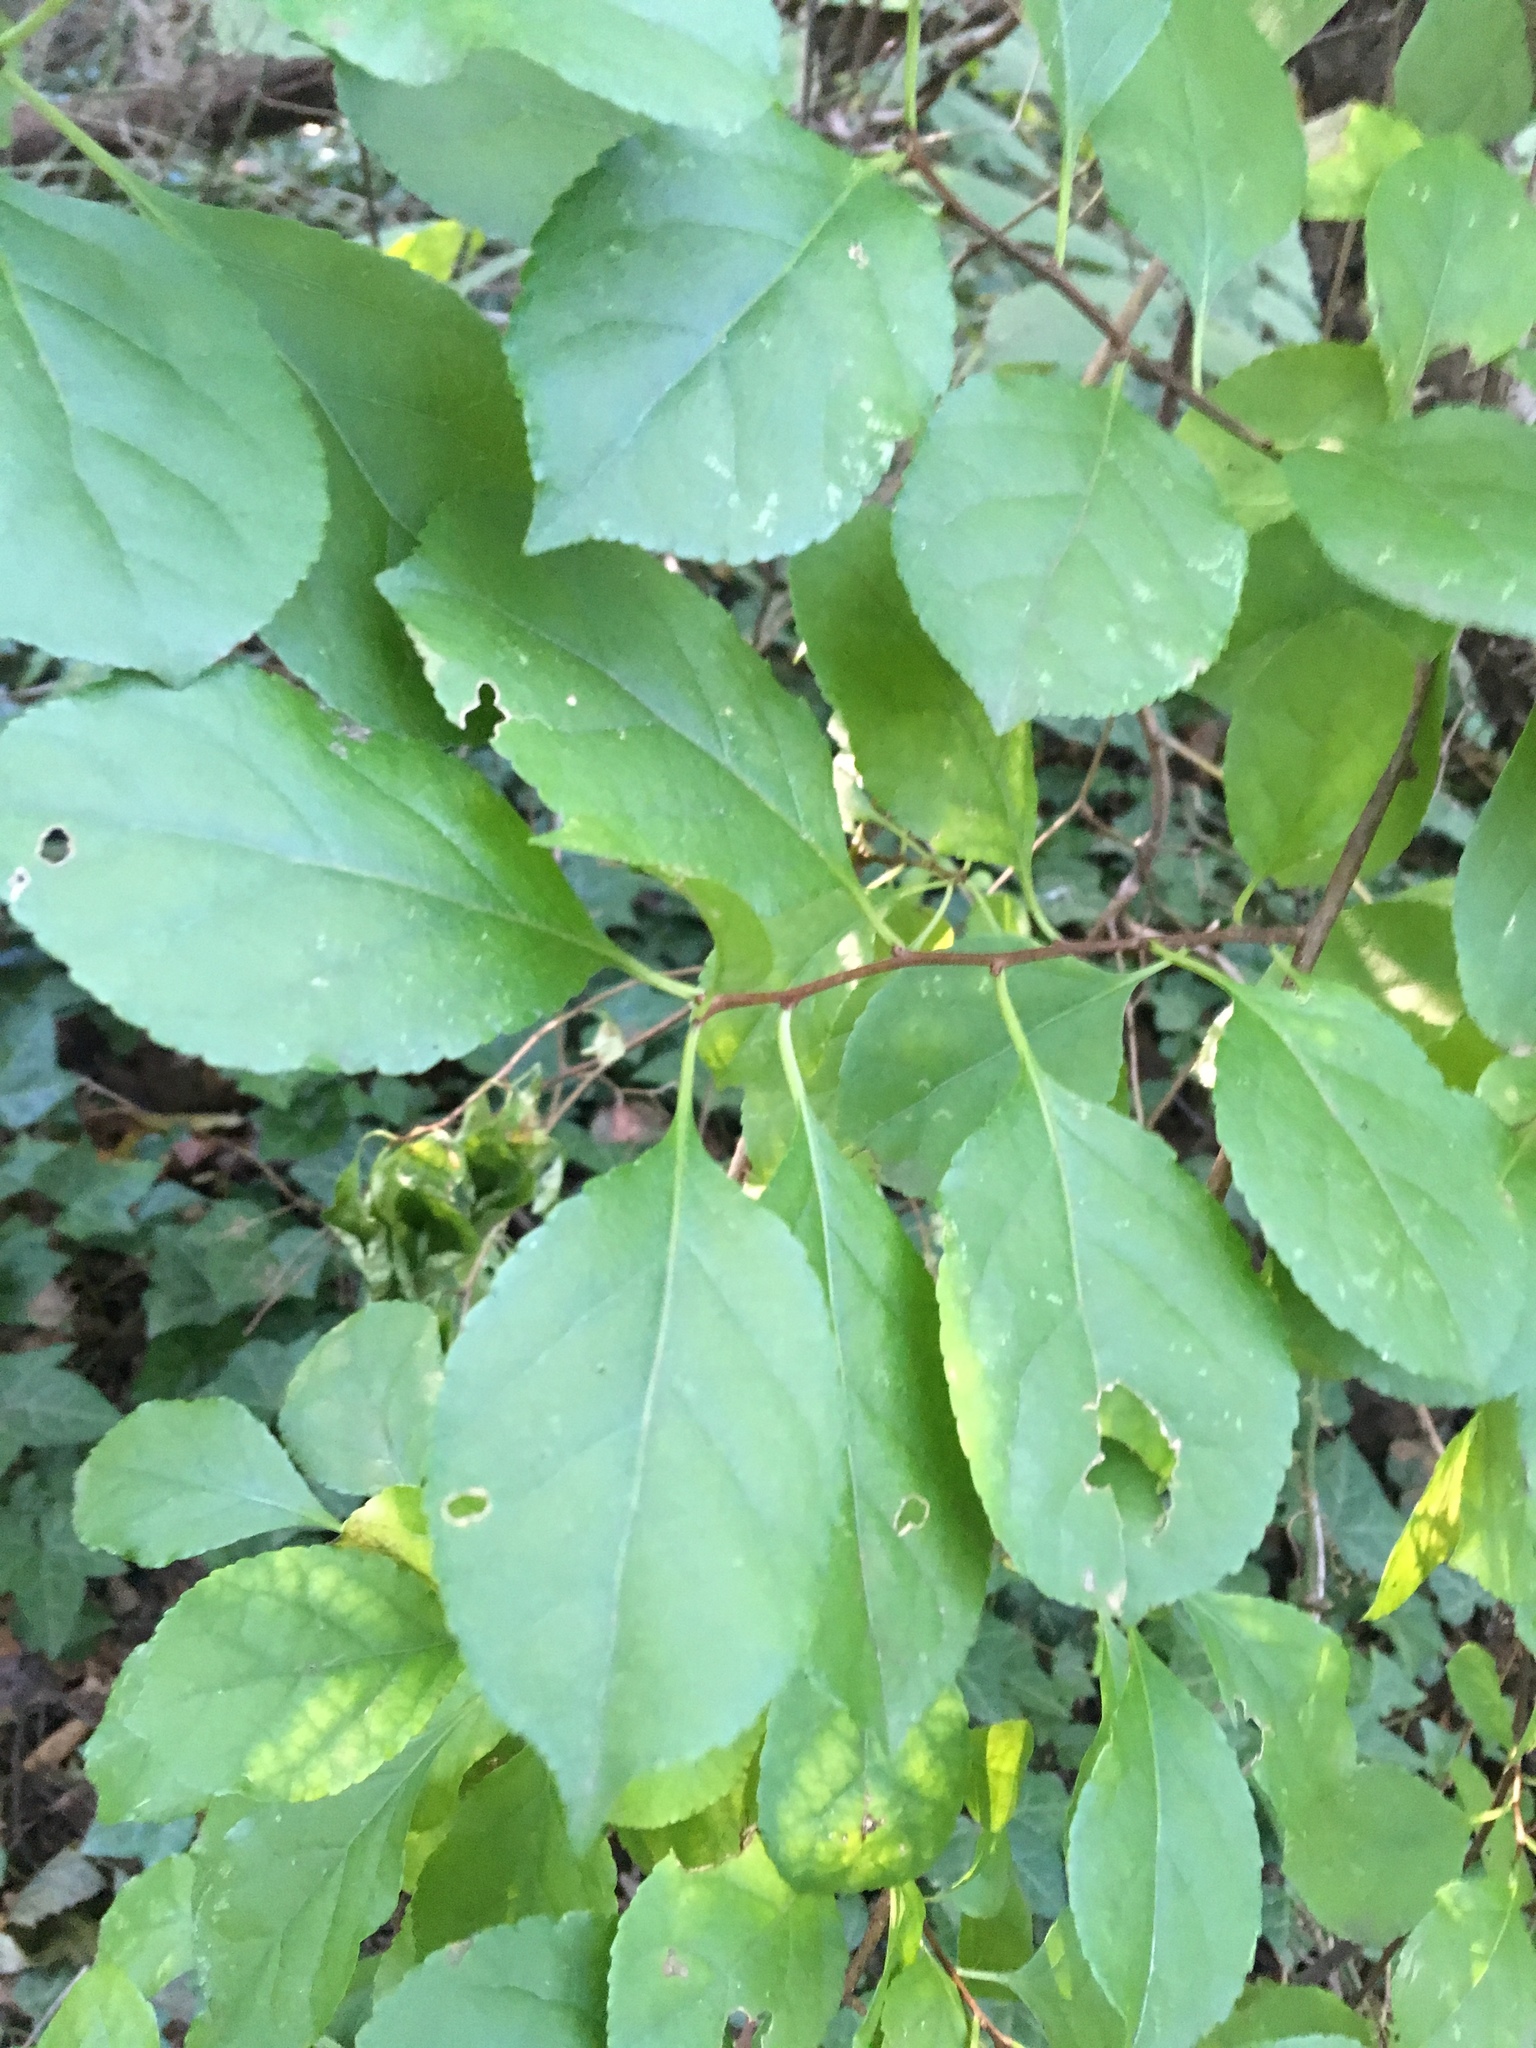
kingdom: Plantae
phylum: Tracheophyta
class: Magnoliopsida
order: Celastrales
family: Celastraceae
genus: Celastrus
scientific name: Celastrus orbiculatus
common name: Oriental bittersweet
